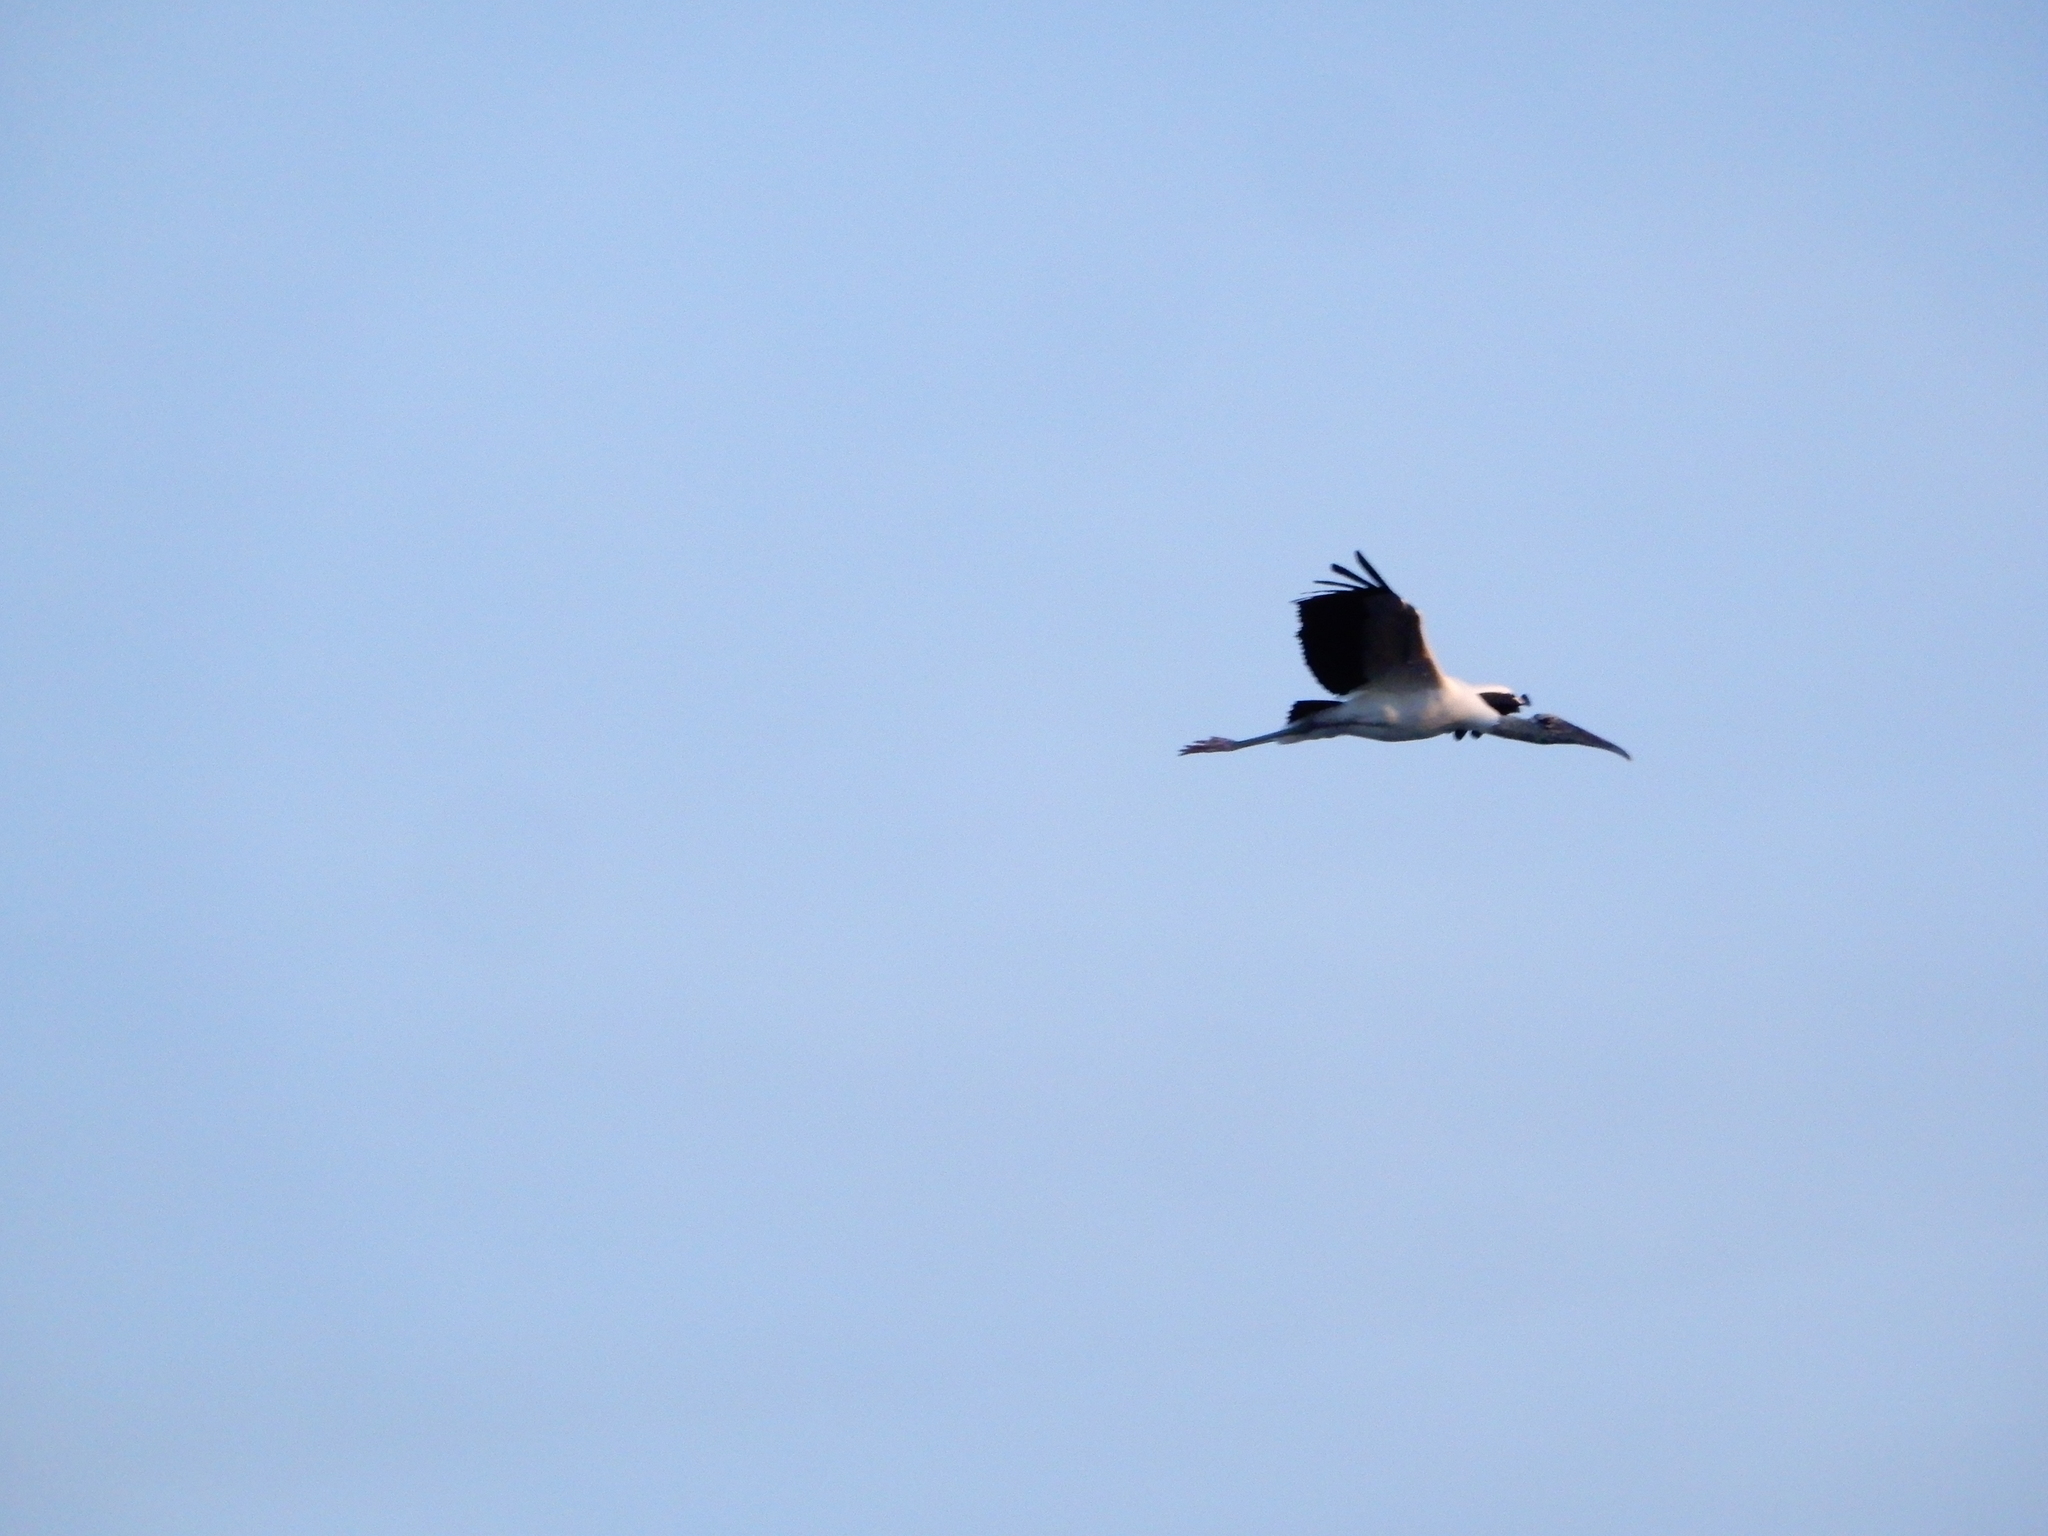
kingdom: Animalia
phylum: Chordata
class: Aves
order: Ciconiiformes
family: Ciconiidae
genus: Mycteria
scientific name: Mycteria americana
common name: Wood stork
